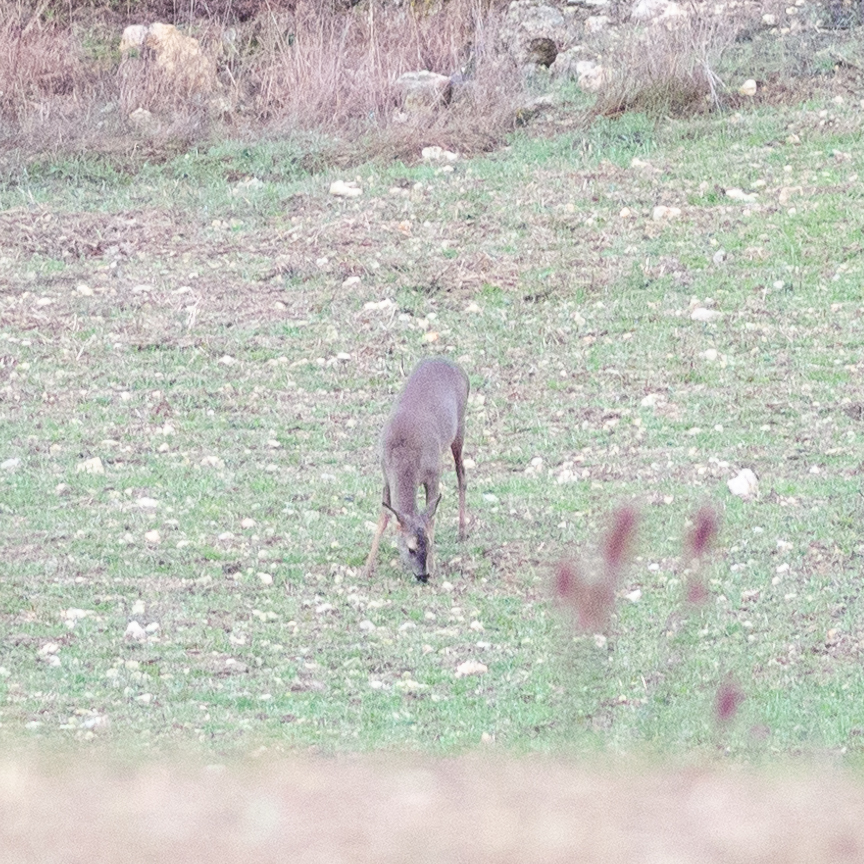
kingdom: Animalia
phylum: Chordata
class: Mammalia
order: Artiodactyla
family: Cervidae
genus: Capreolus
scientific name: Capreolus capreolus
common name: Western roe deer
